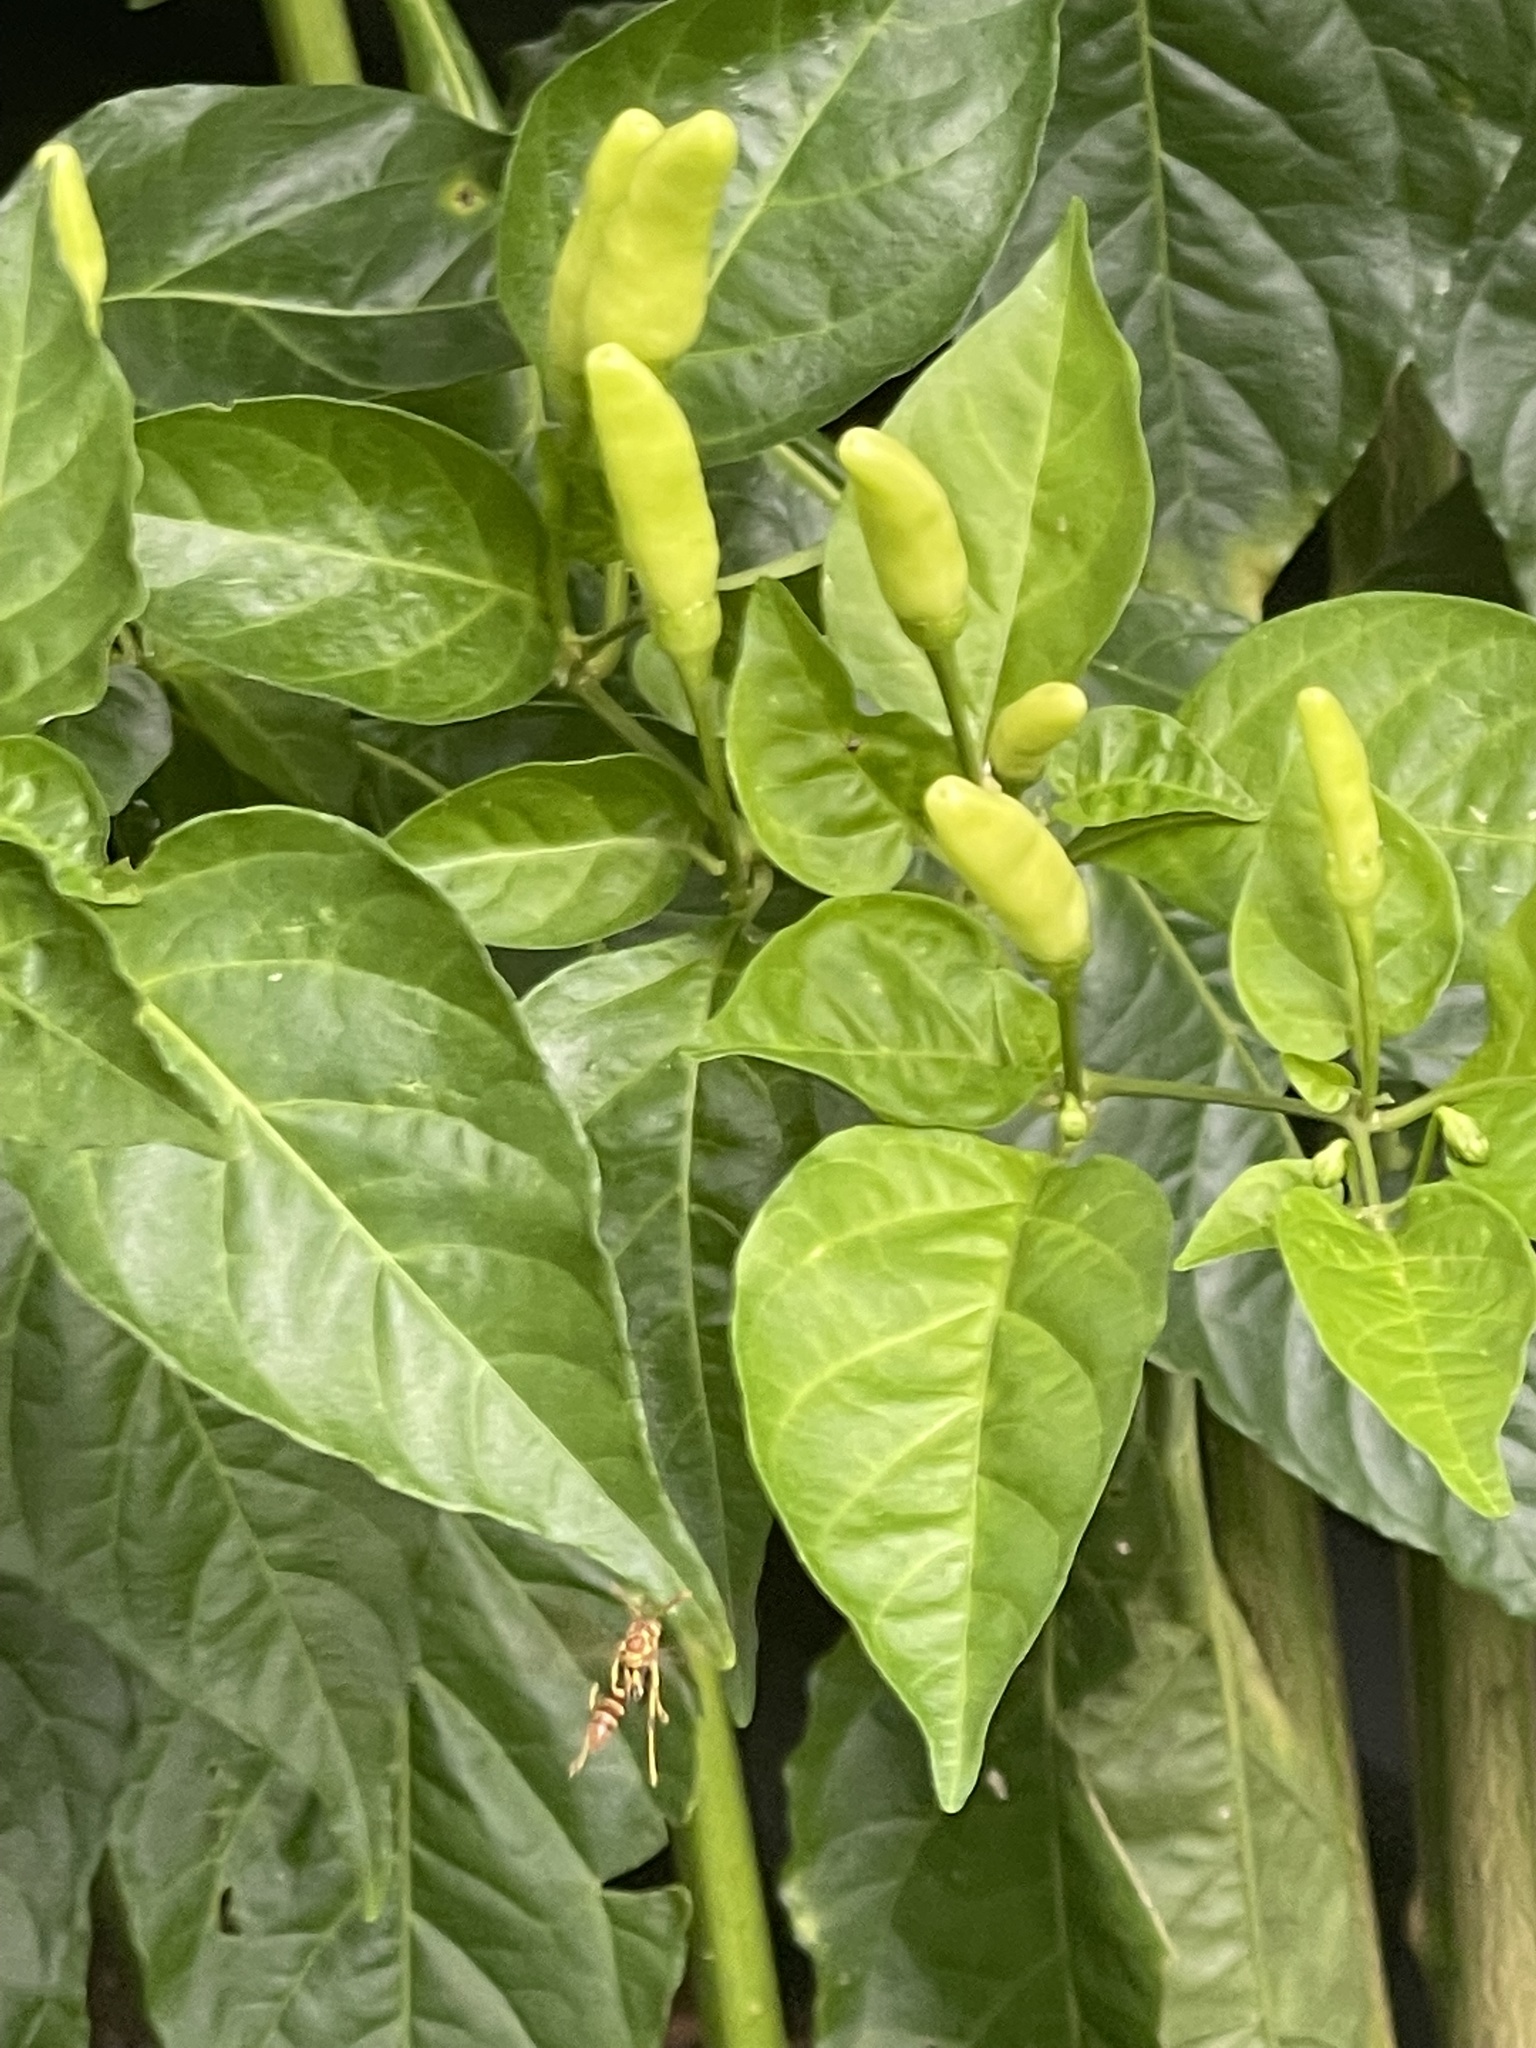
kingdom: Animalia
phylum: Arthropoda
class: Insecta
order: Hymenoptera
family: Vespidae
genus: Mischocyttarus
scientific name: Mischocyttarus mexicanus
